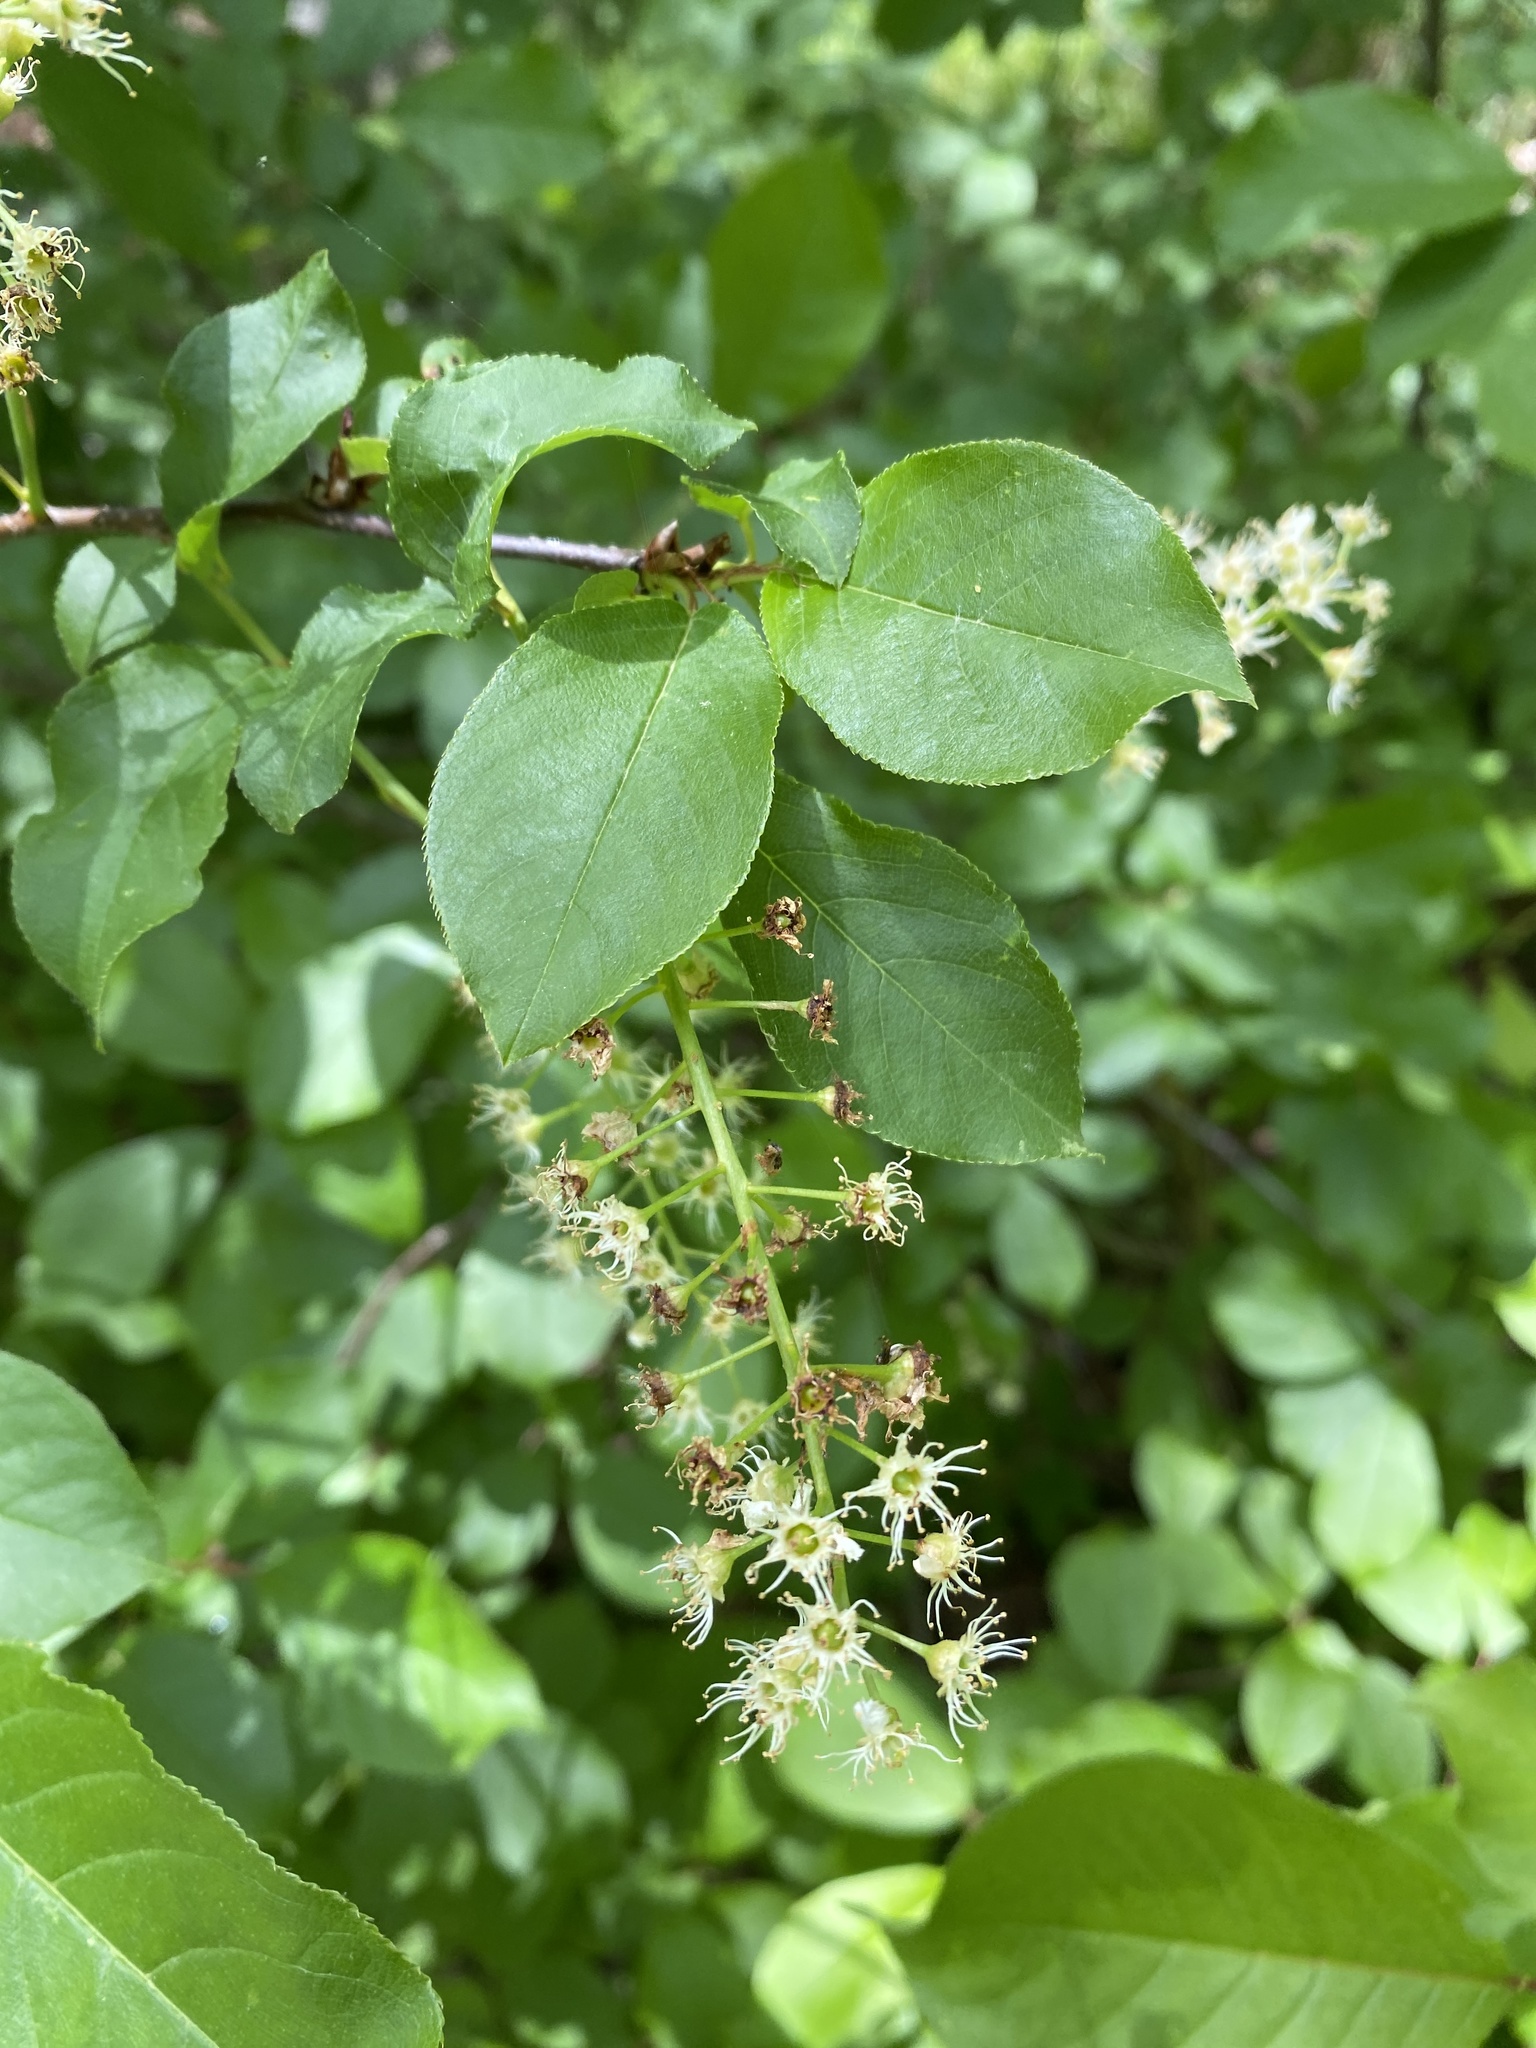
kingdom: Plantae
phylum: Tracheophyta
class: Magnoliopsida
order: Rosales
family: Rosaceae
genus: Prunus
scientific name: Prunus virginiana
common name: Chokecherry
